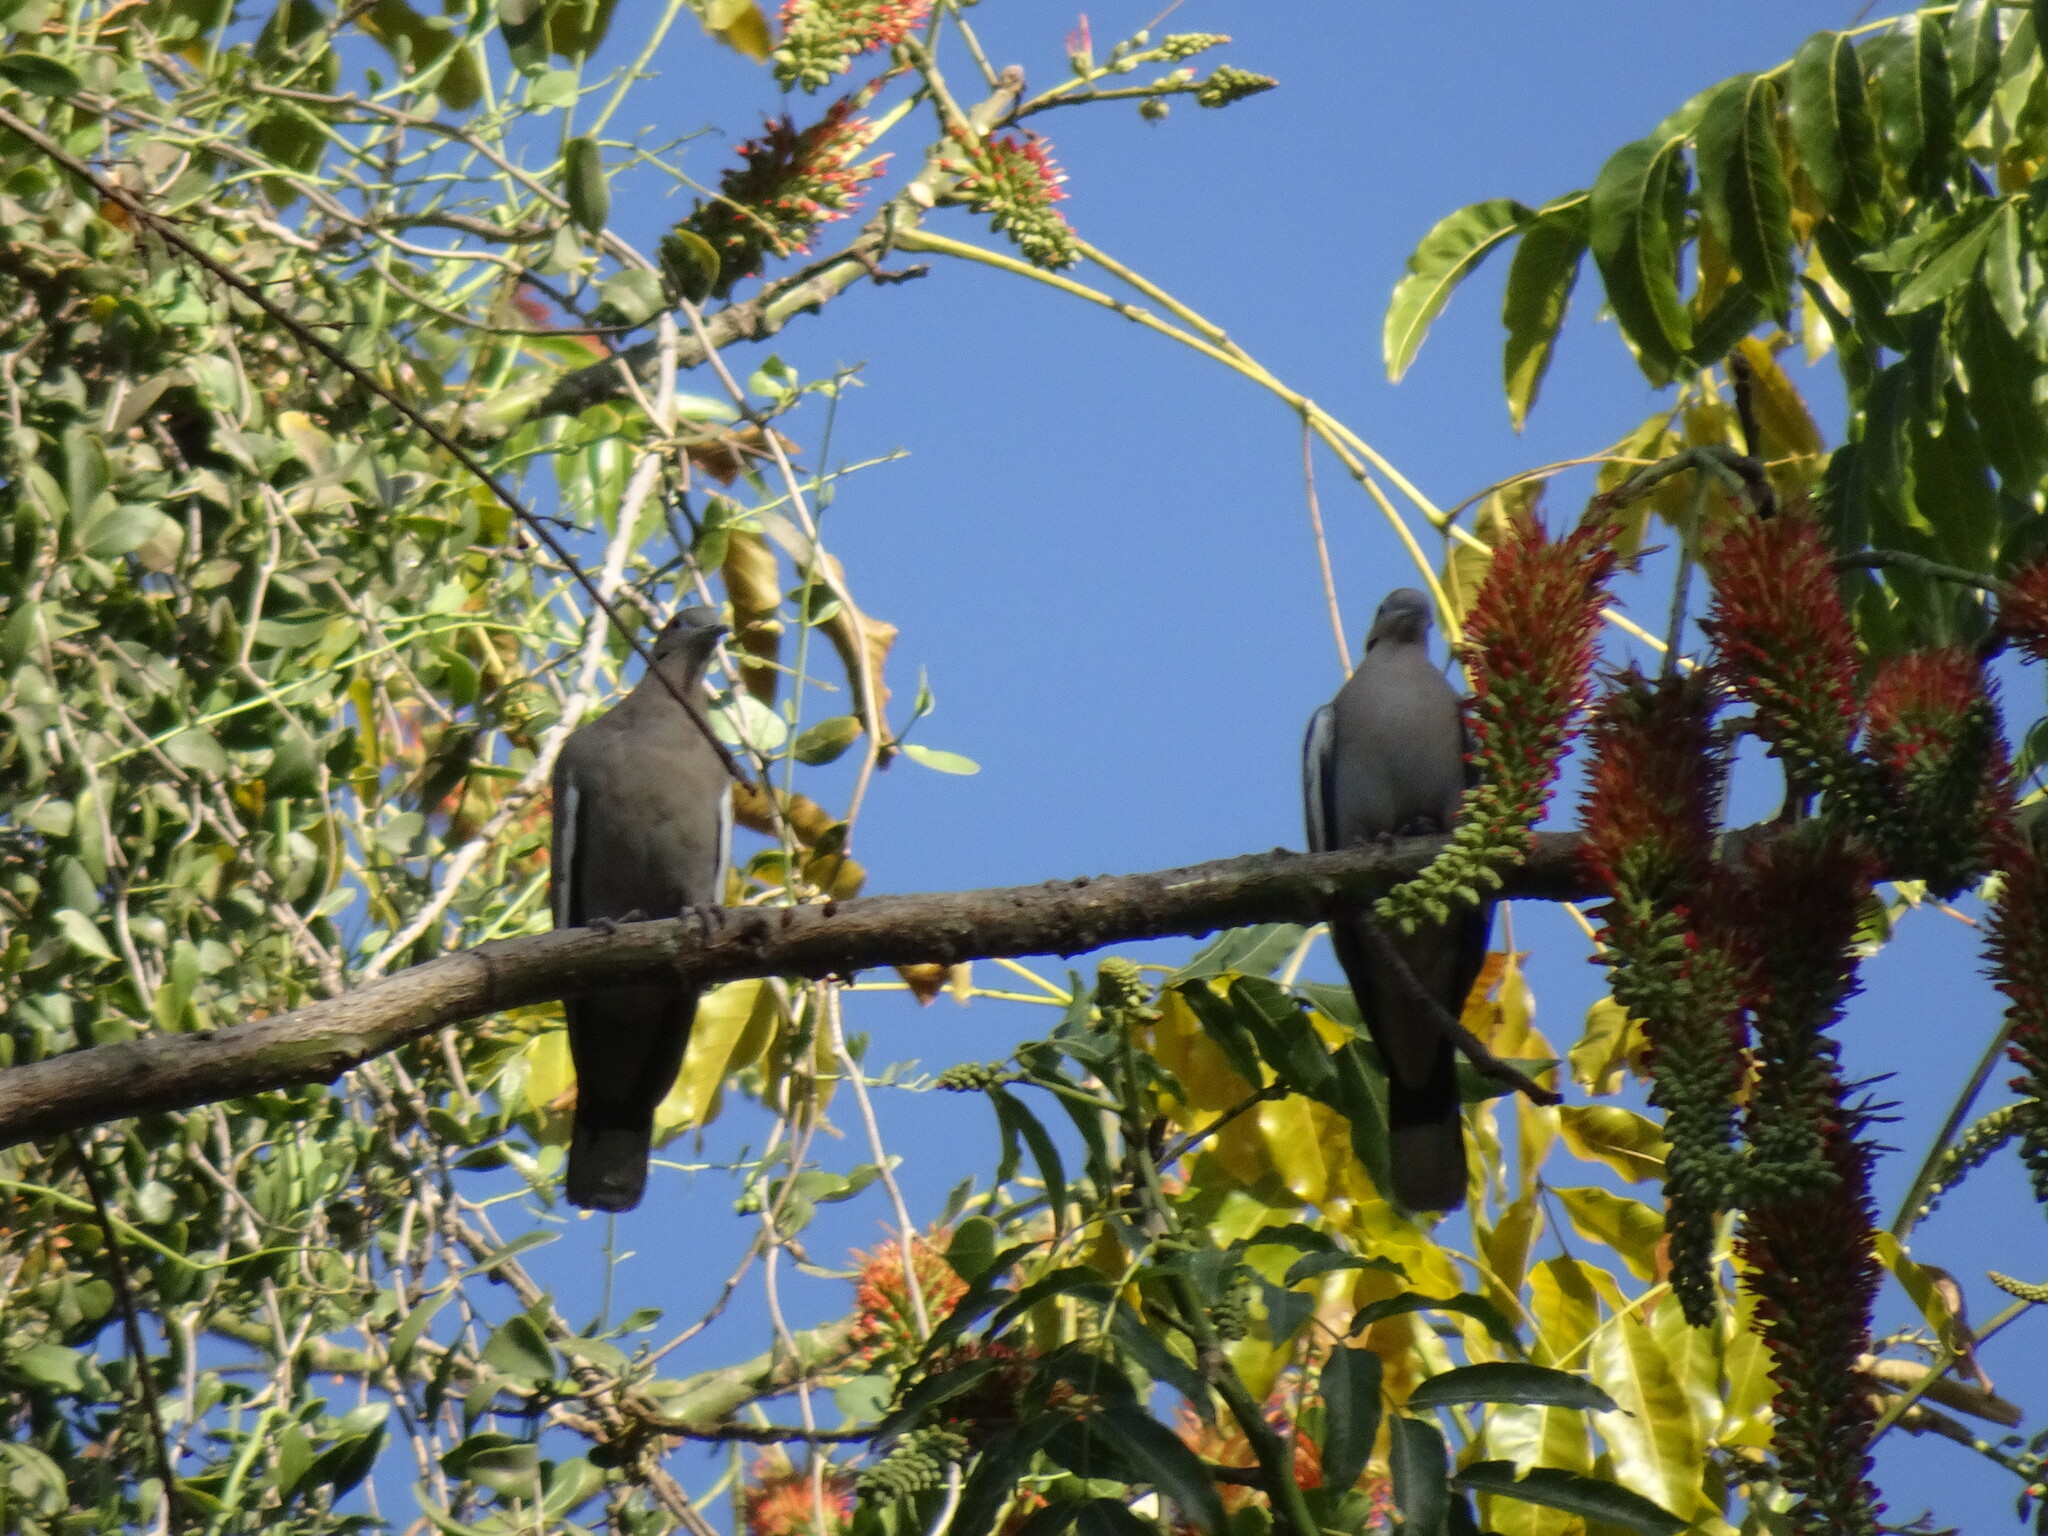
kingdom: Animalia
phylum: Chordata
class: Aves
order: Columbiformes
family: Columbidae
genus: Streptopelia
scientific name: Streptopelia decaocto
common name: Eurasian collared dove
